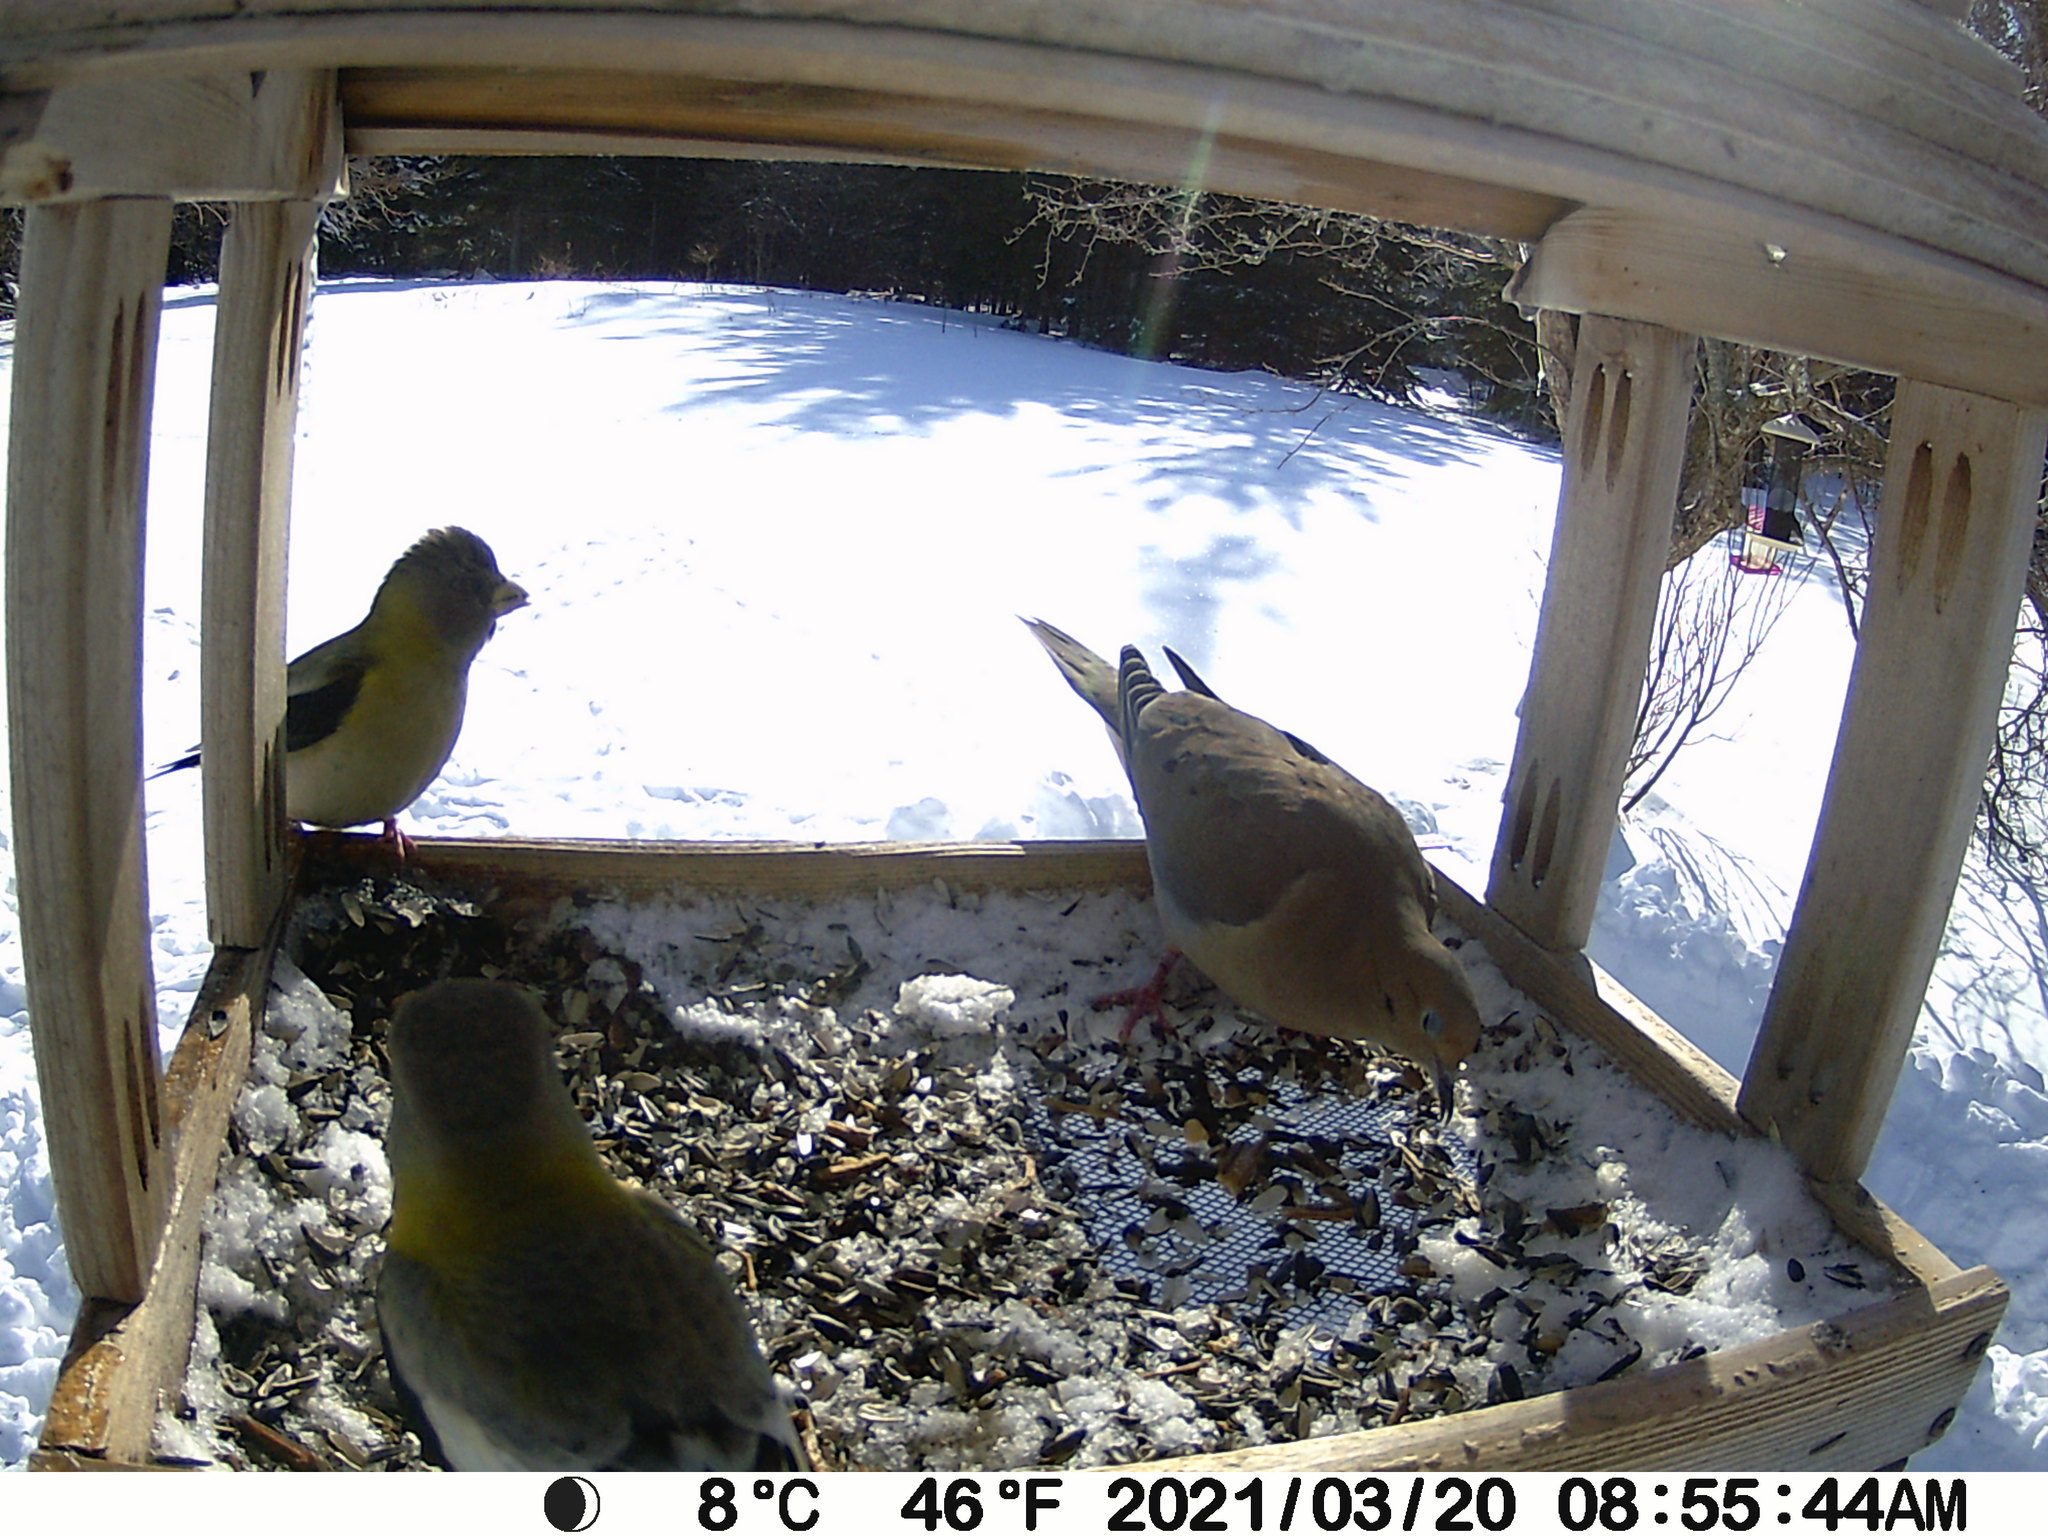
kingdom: Animalia
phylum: Chordata
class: Aves
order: Columbiformes
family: Columbidae
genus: Zenaida
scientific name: Zenaida macroura
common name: Mourning dove
